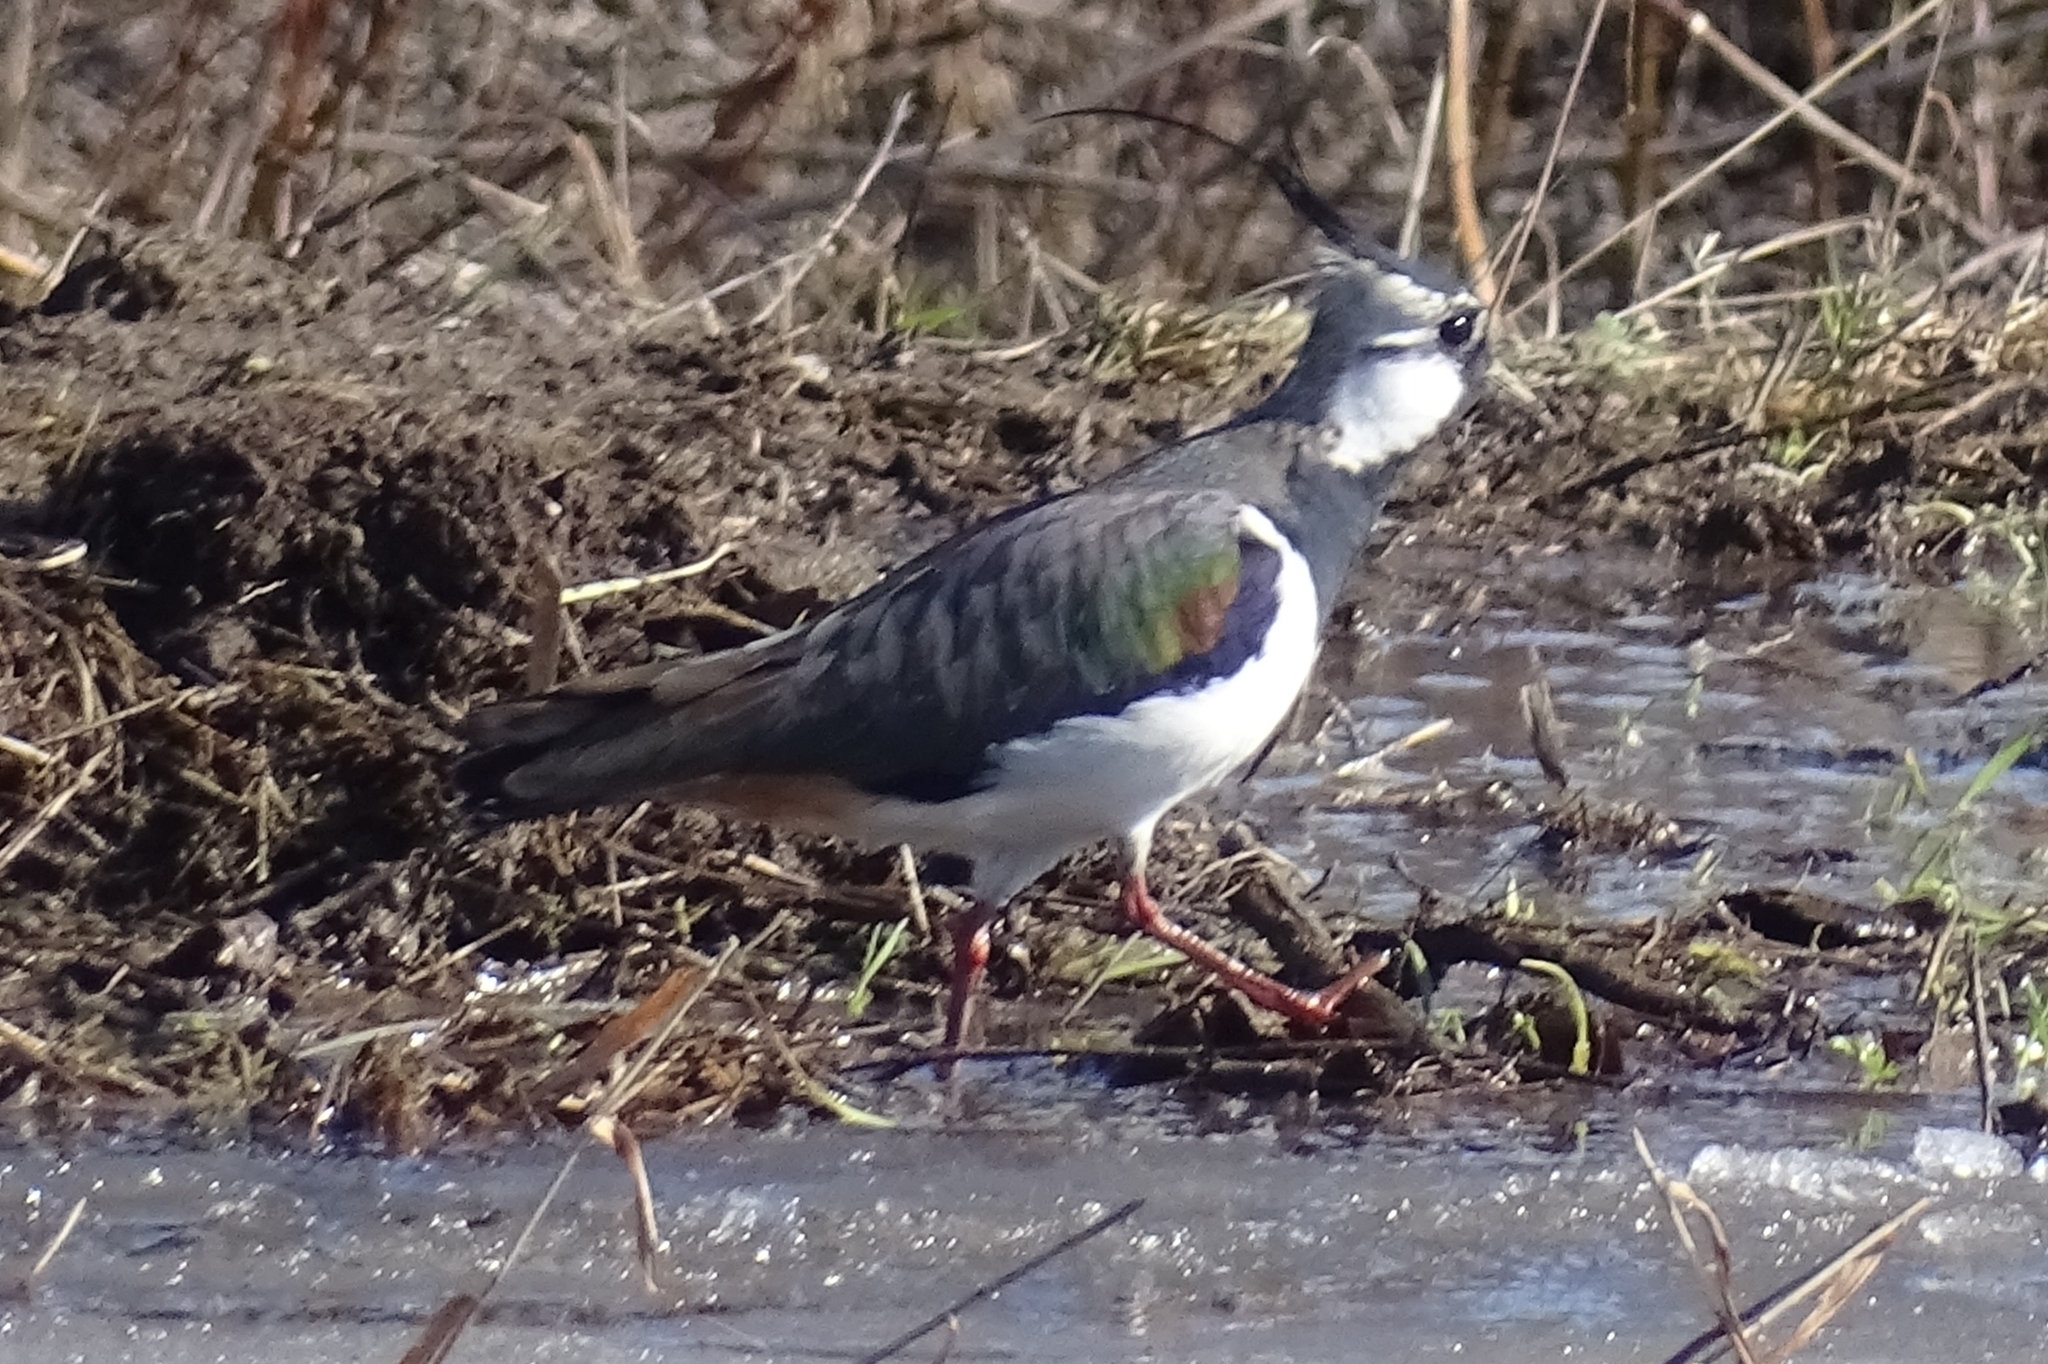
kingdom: Animalia
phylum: Chordata
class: Aves
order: Charadriiformes
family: Charadriidae
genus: Vanellus
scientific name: Vanellus vanellus
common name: Northern lapwing
